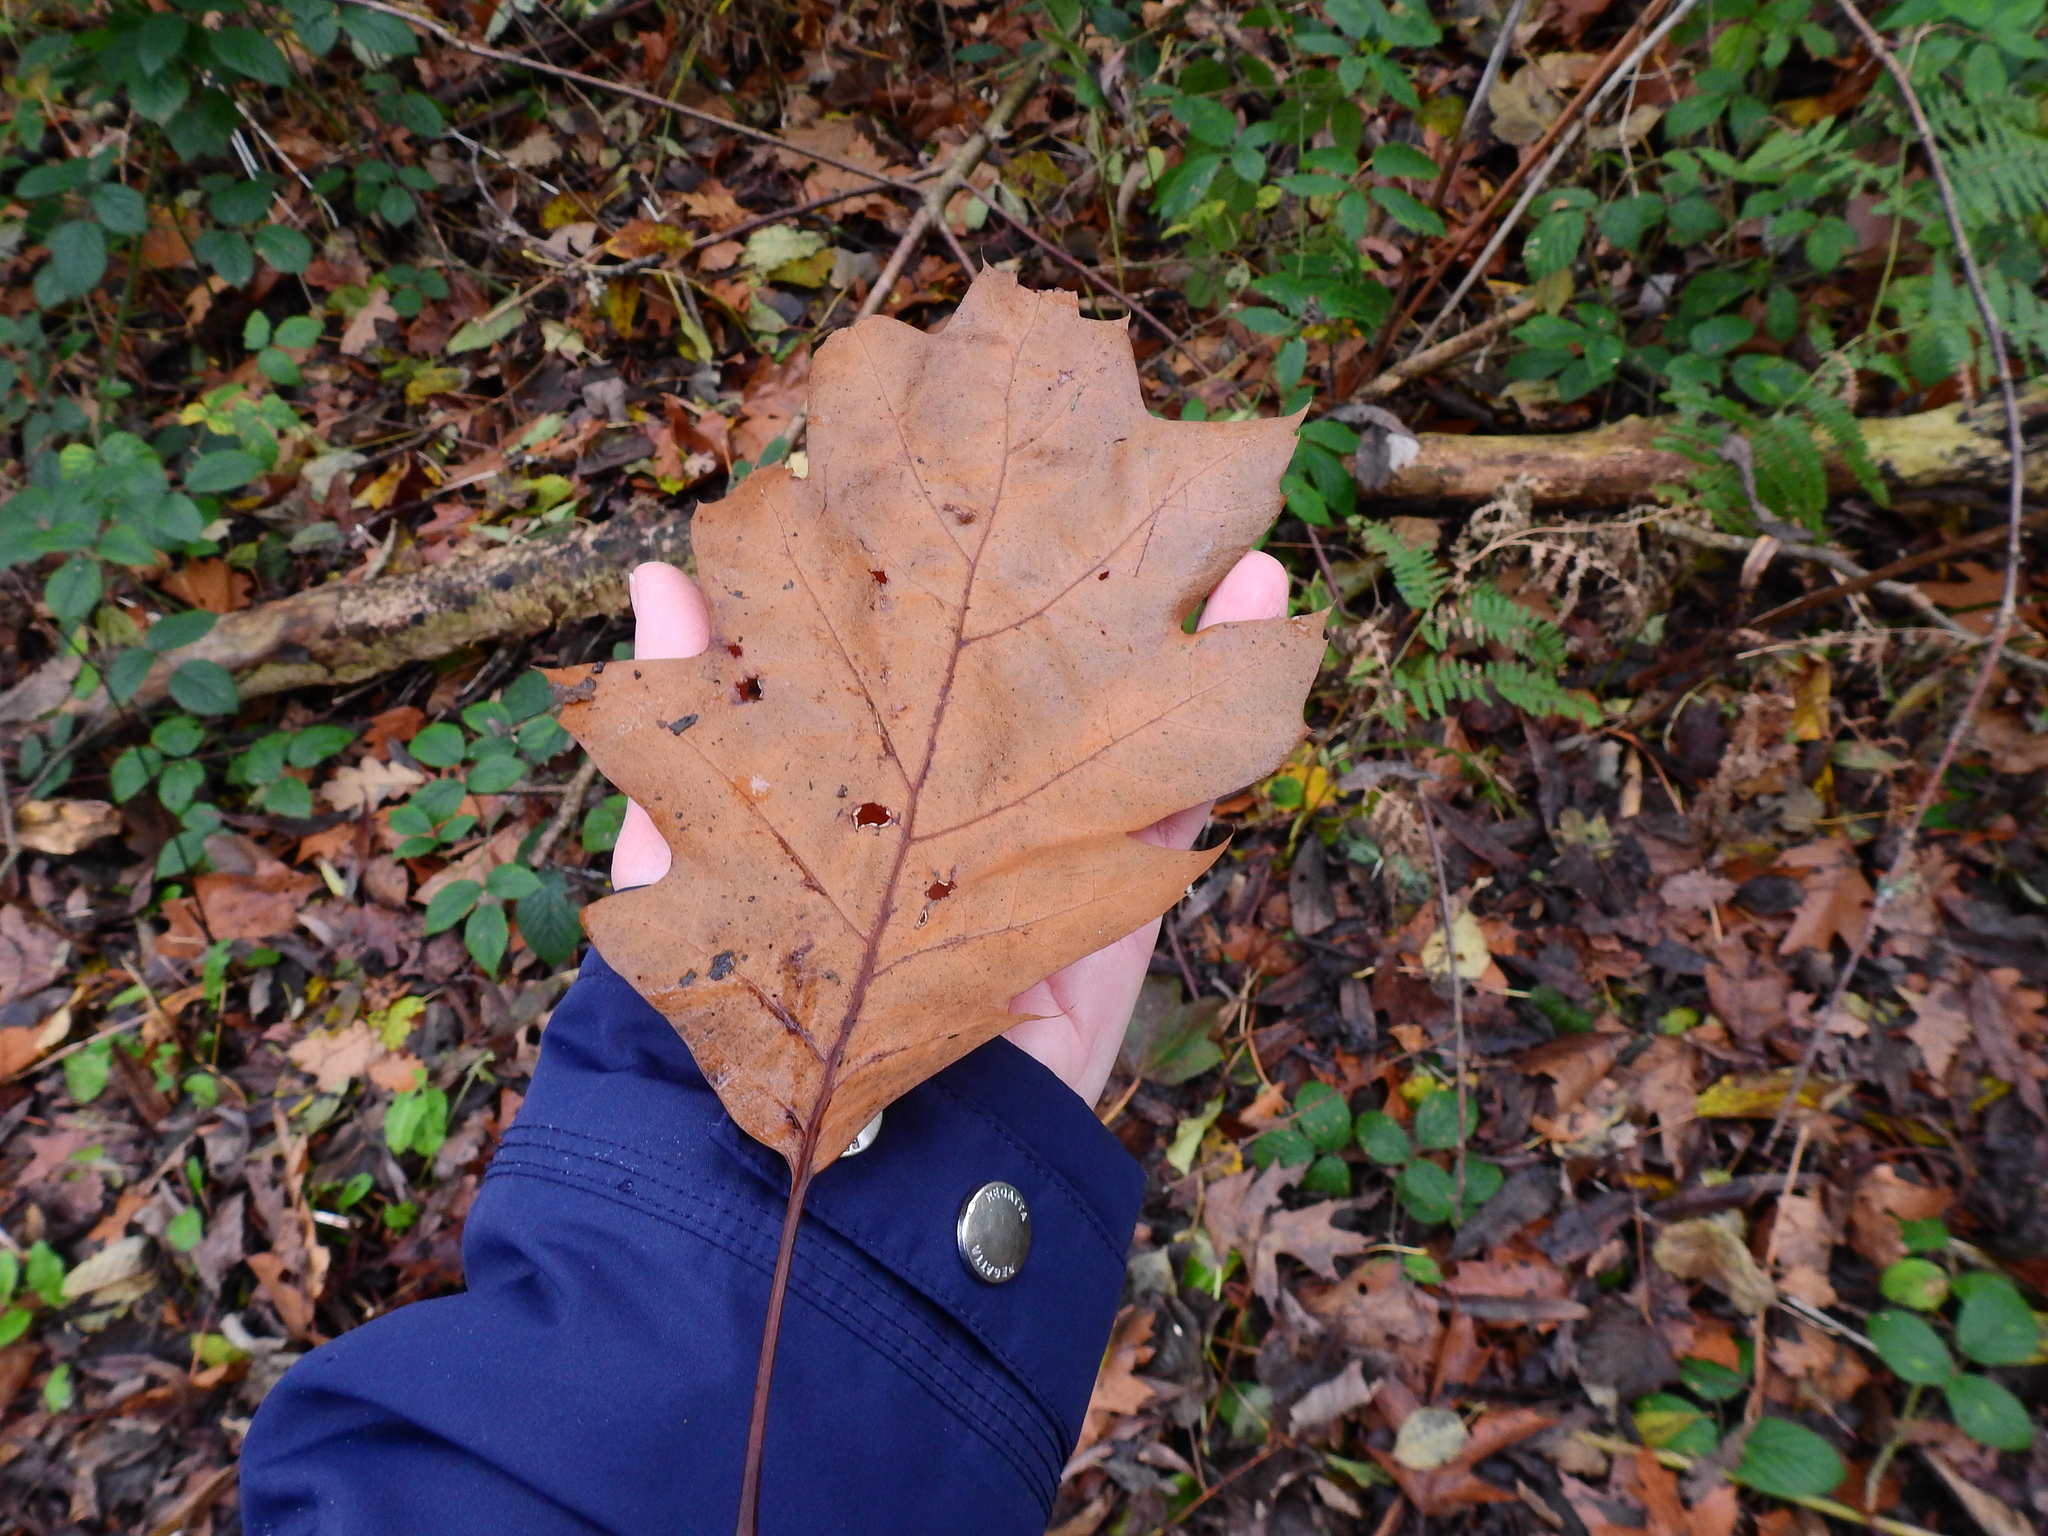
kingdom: Plantae
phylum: Tracheophyta
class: Magnoliopsida
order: Fagales
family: Fagaceae
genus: Quercus
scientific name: Quercus rubra
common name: Red oak
